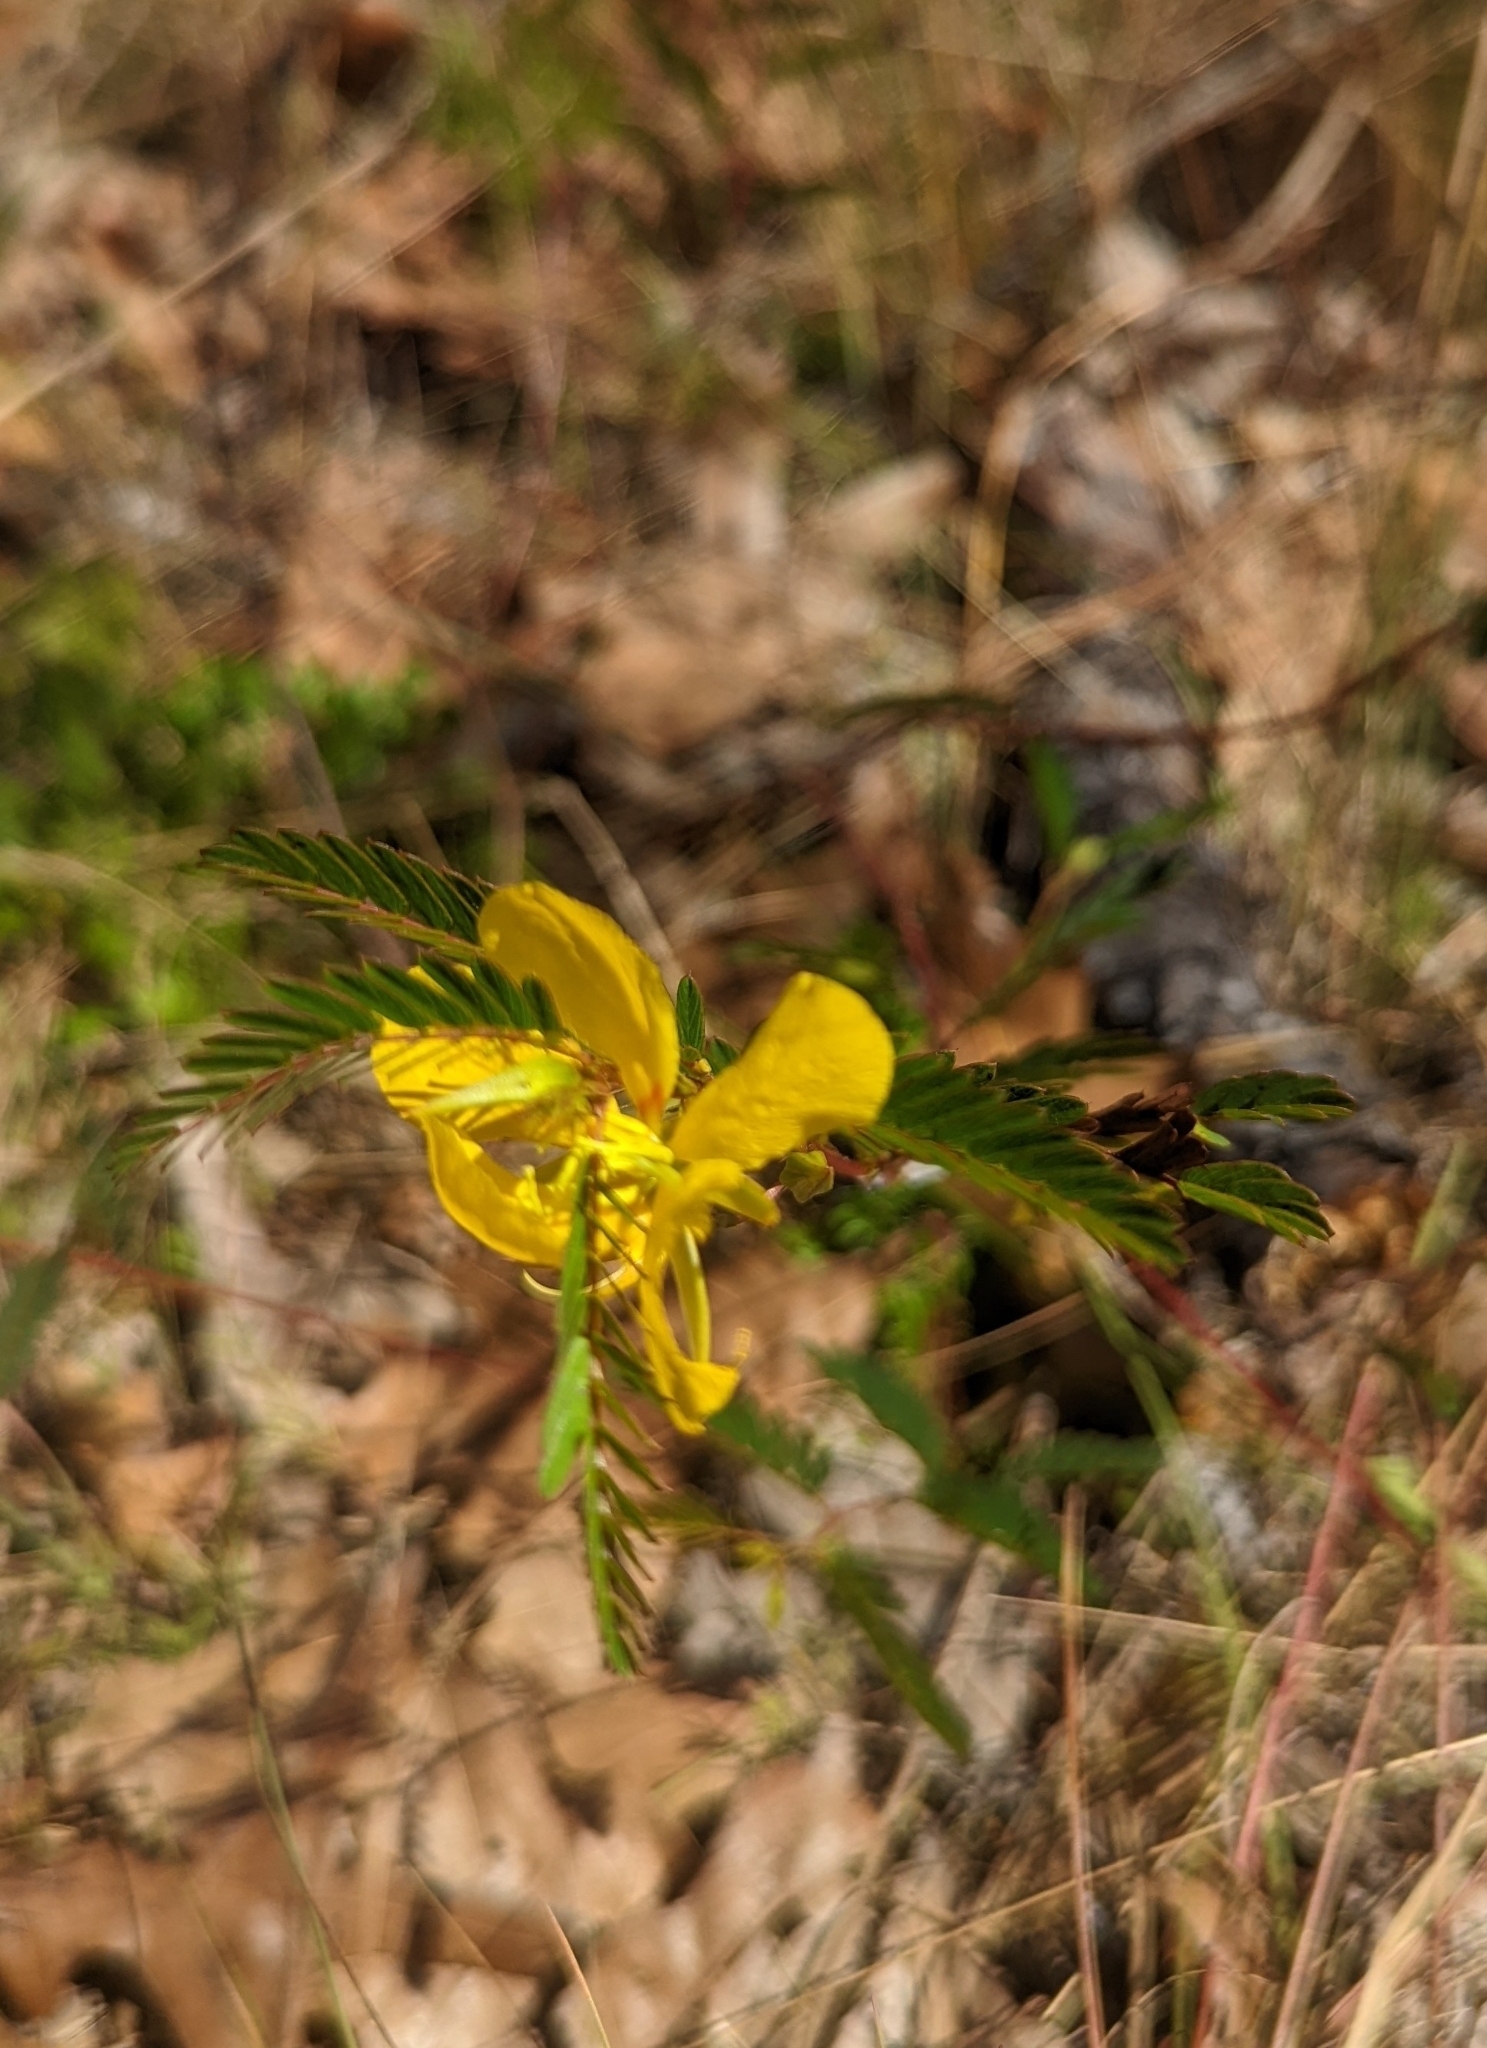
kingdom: Plantae
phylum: Tracheophyta
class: Magnoliopsida
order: Fabales
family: Fabaceae
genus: Chamaecrista
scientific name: Chamaecrista fasciculata
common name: Golden cassia
